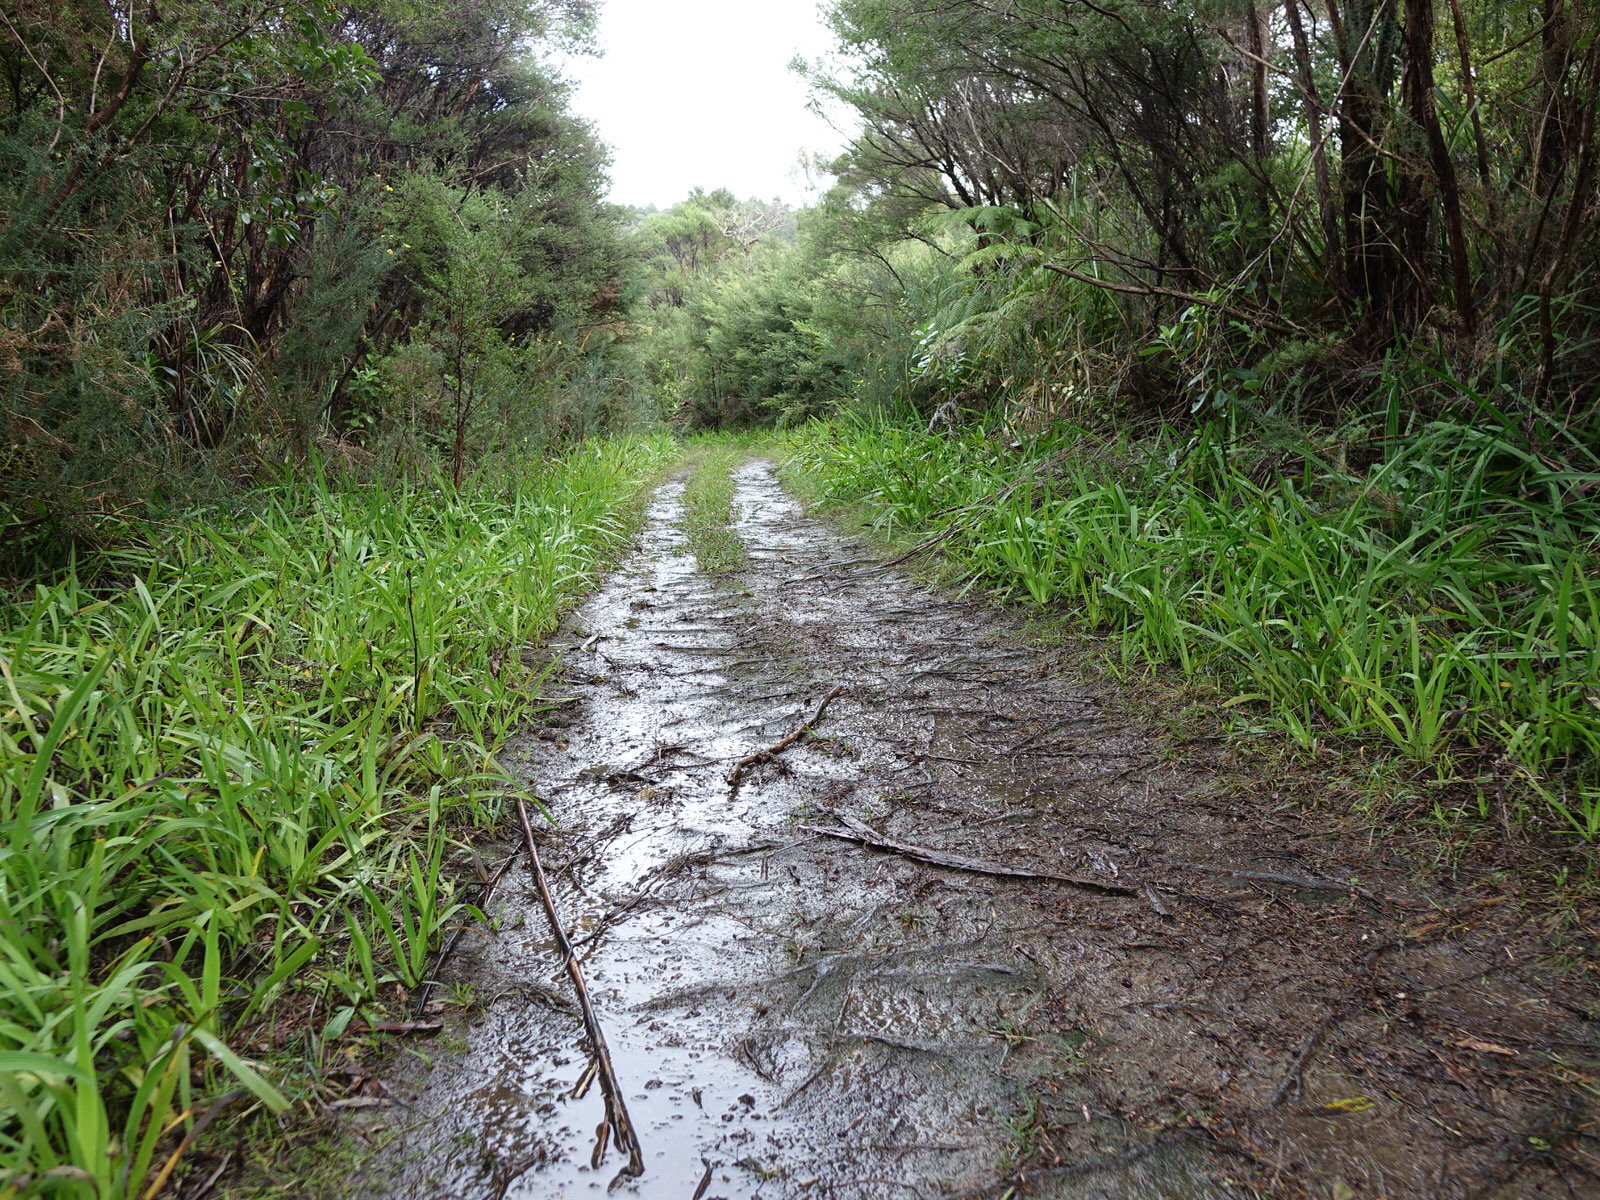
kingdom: Plantae
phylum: Tracheophyta
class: Liliopsida
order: Asparagales
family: Iridaceae
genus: Aristea
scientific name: Aristea ecklonii
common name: Blue corn-lily
